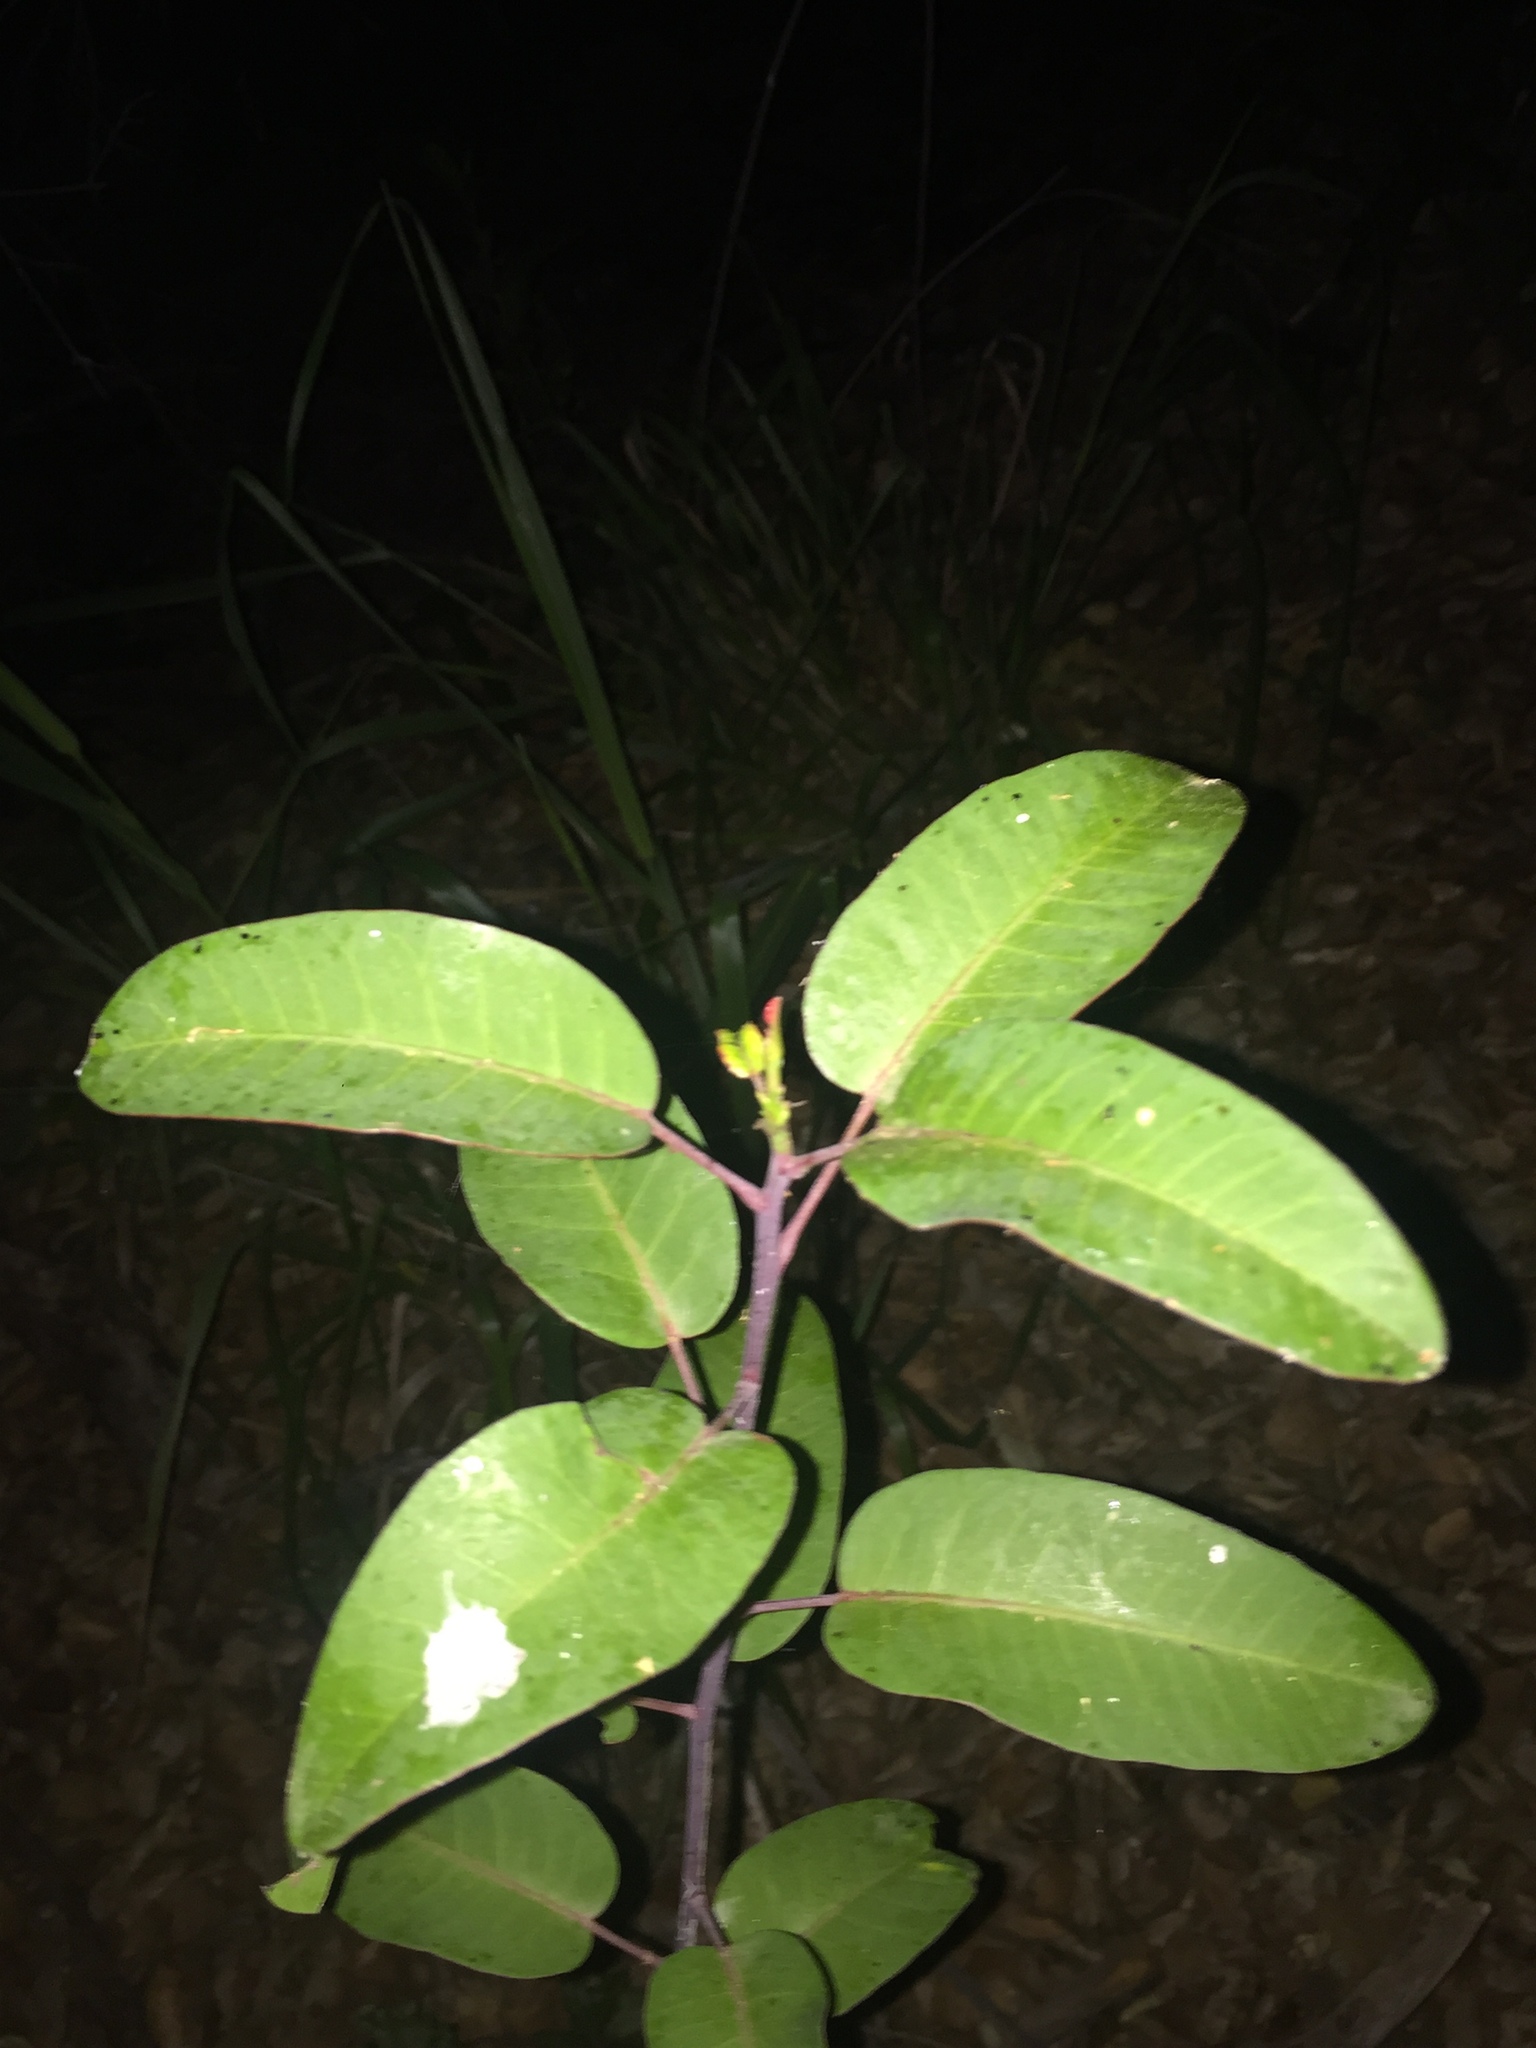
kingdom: Plantae
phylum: Tracheophyta
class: Magnoliopsida
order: Sapindales
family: Anacardiaceae
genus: Malosma
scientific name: Malosma laurina
